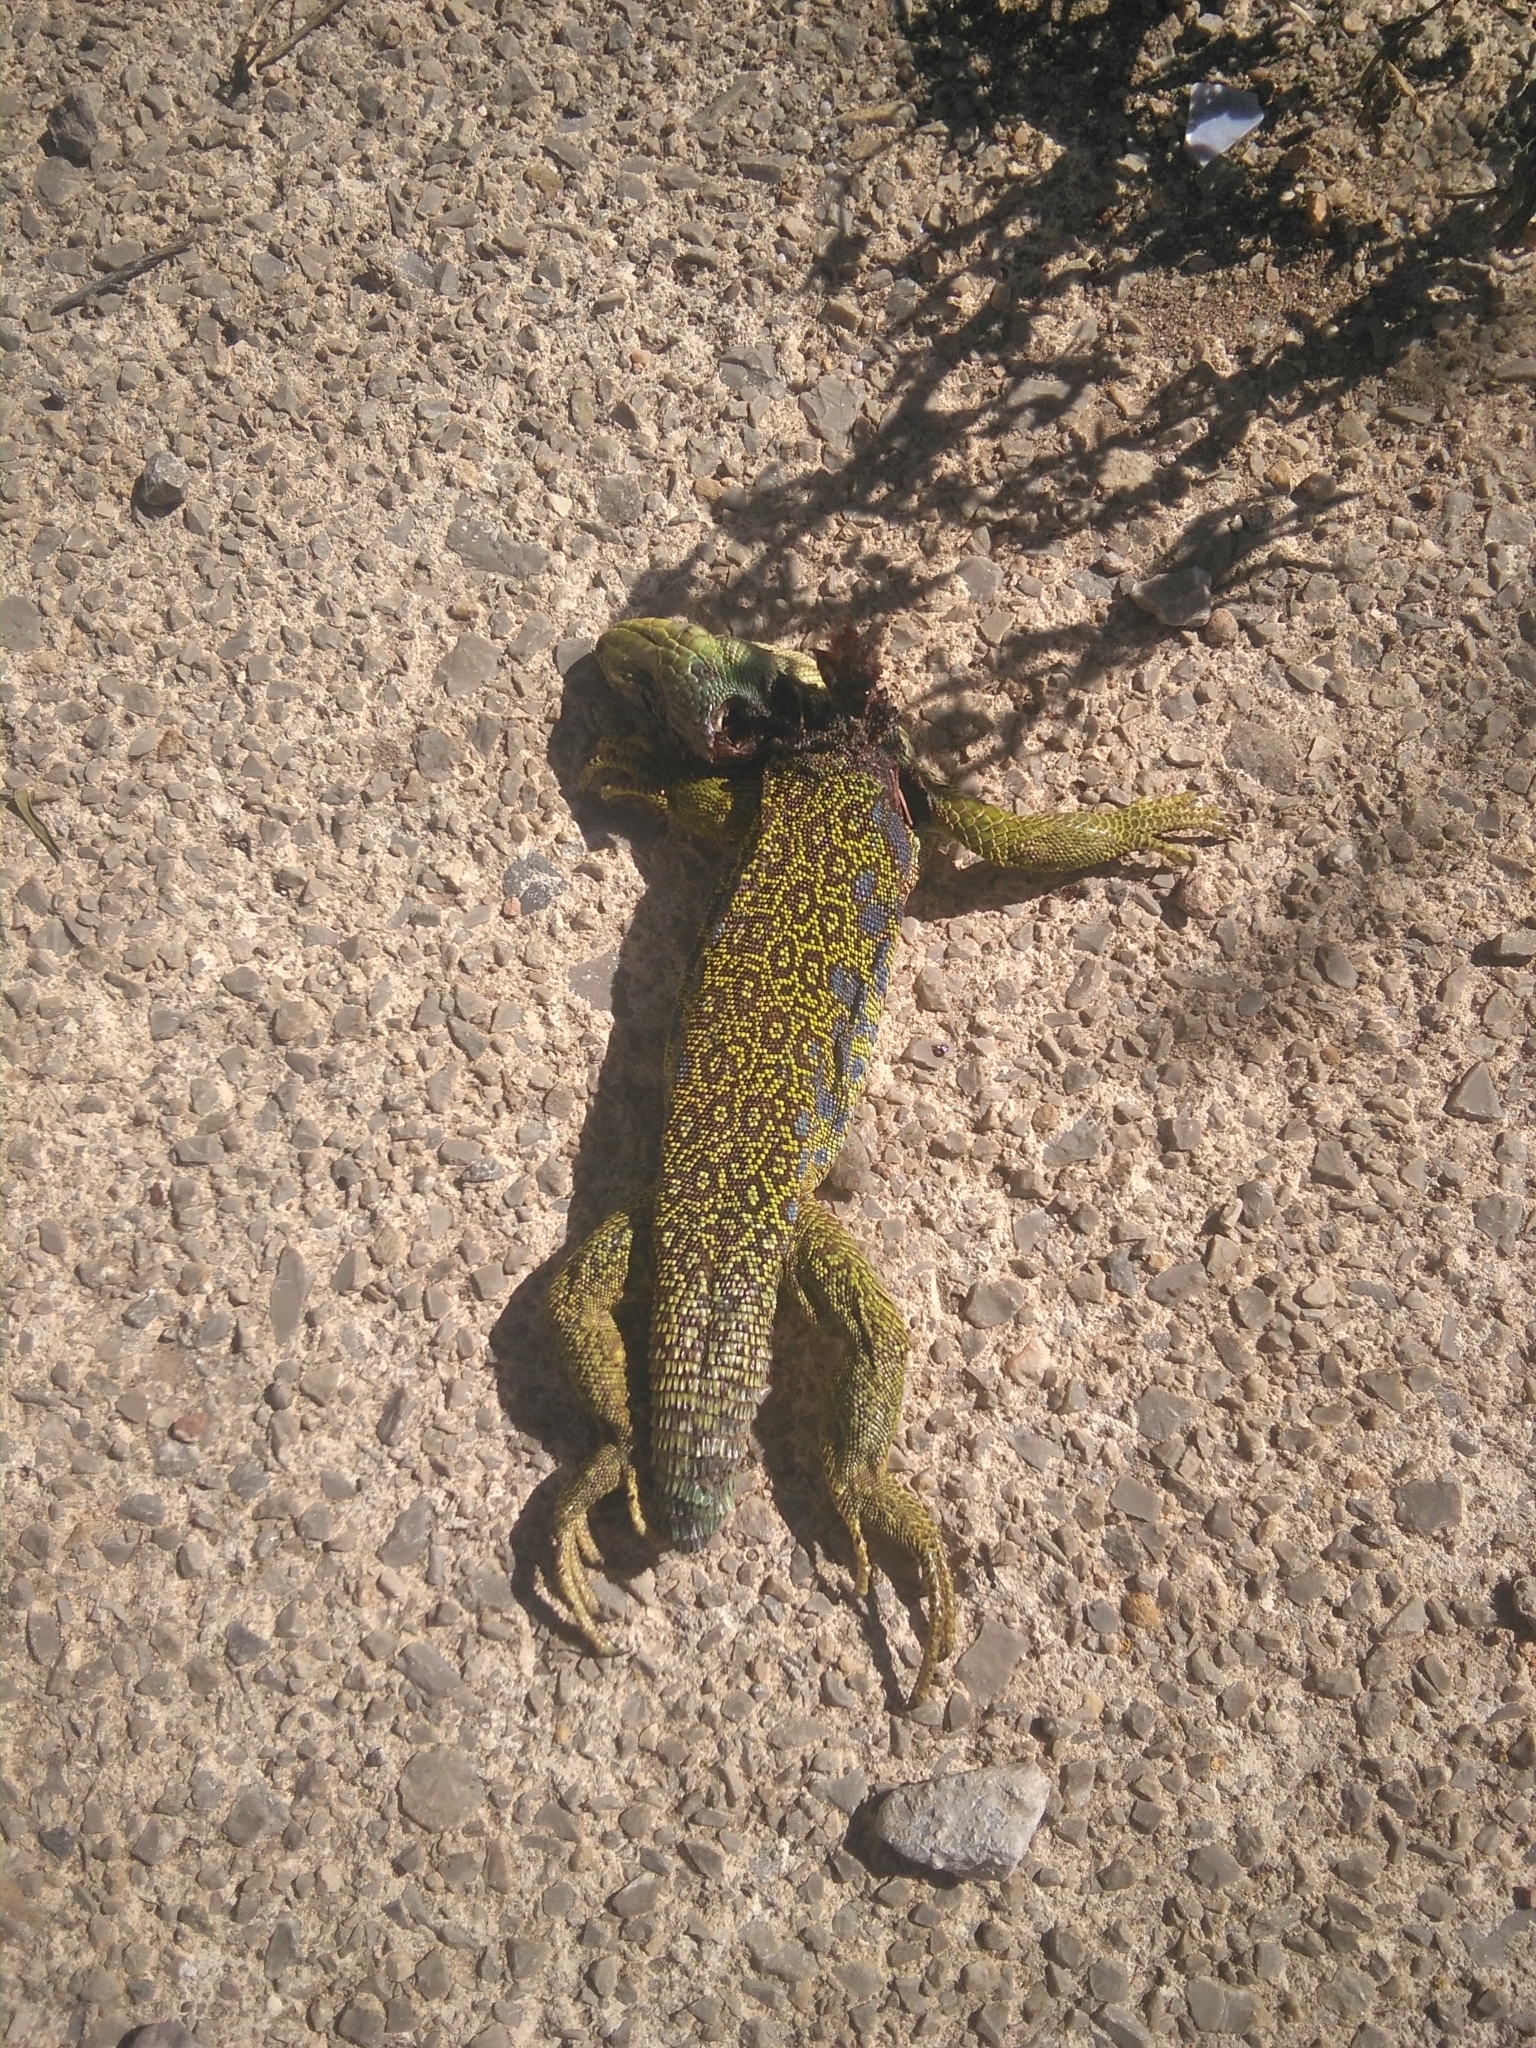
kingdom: Animalia
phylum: Chordata
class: Squamata
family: Lacertidae
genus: Timon
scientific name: Timon lepidus
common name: Ocellated lizard
